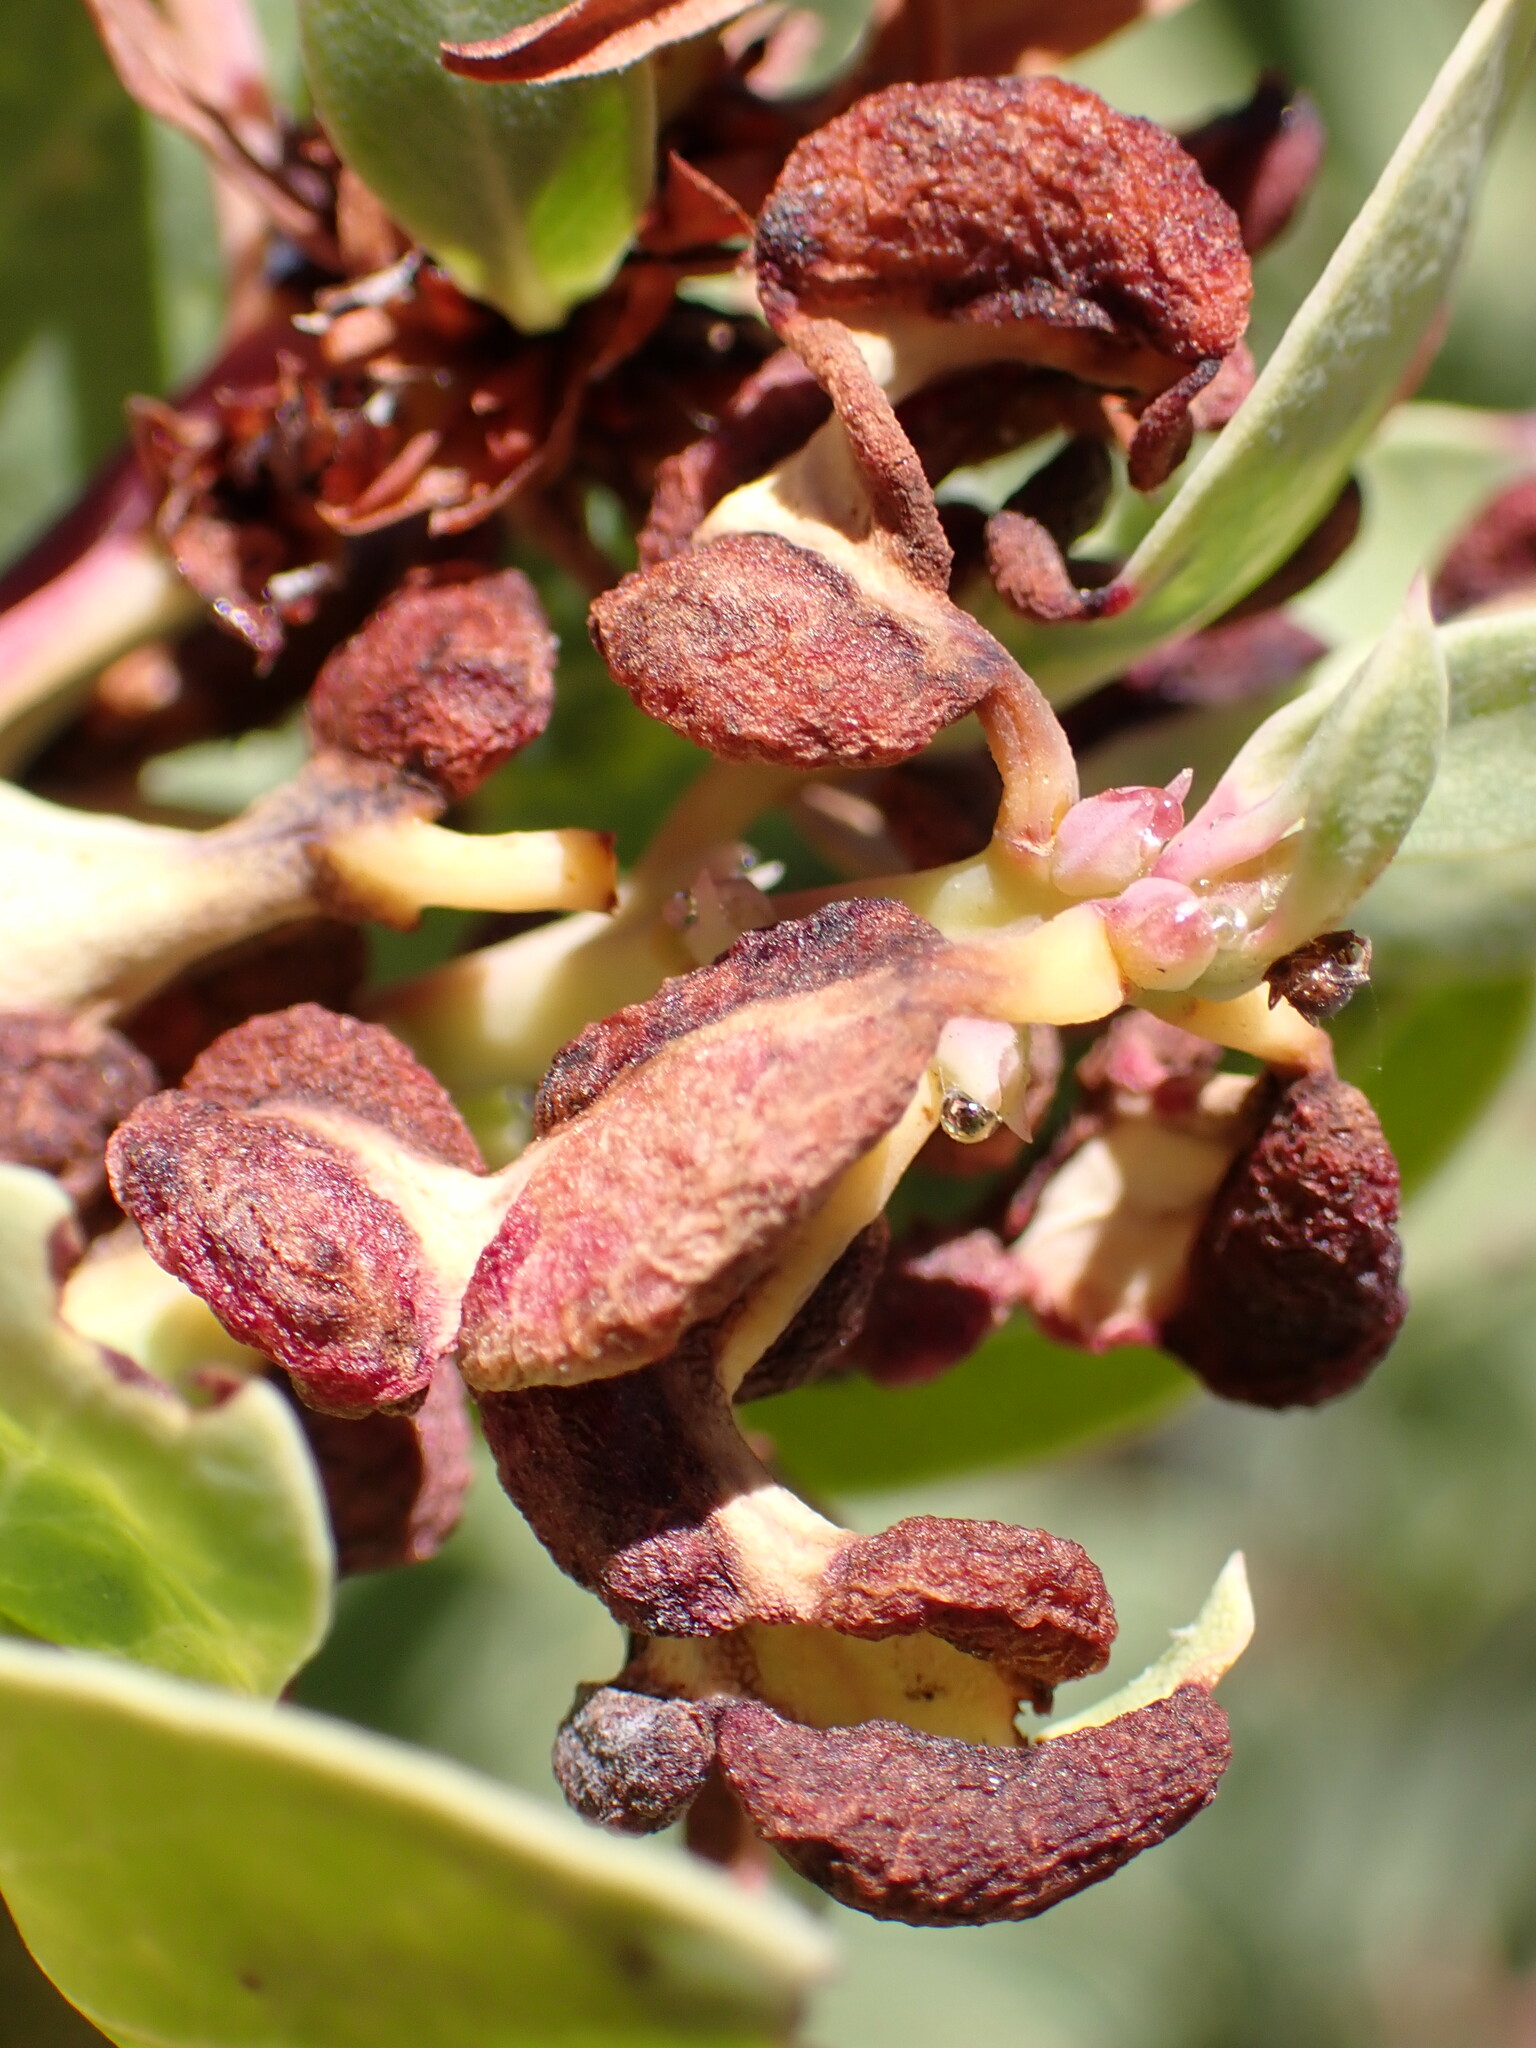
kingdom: Animalia
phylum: Arthropoda
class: Insecta
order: Hemiptera
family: Aphididae
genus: Tamalia
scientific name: Tamalia
